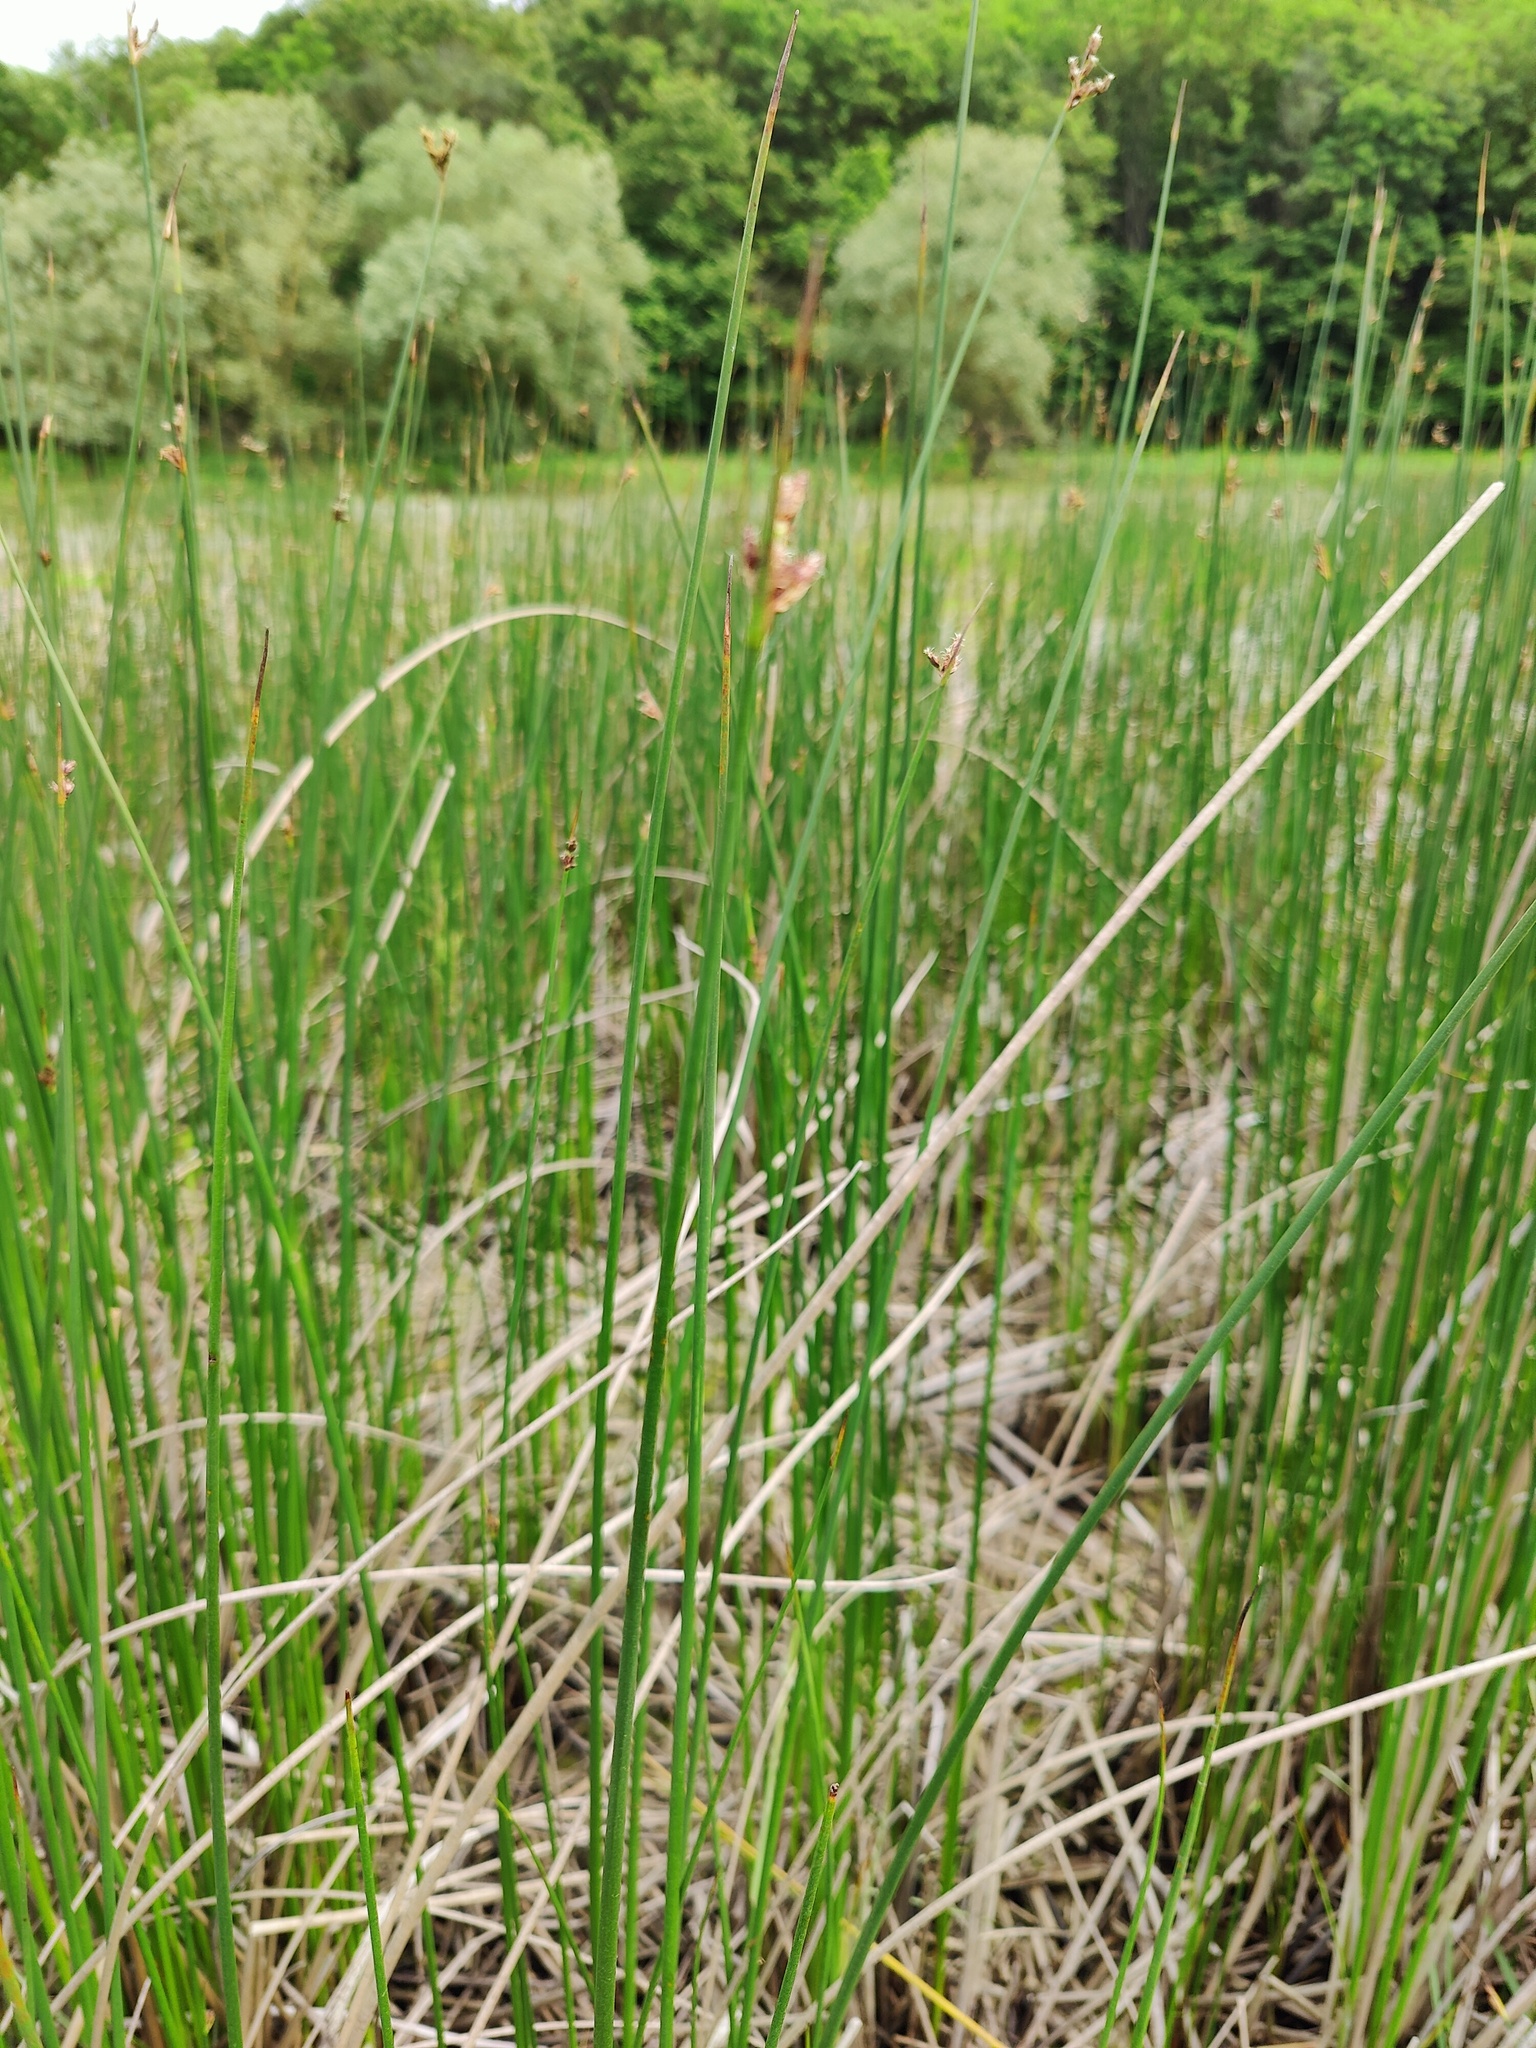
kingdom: Plantae
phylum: Tracheophyta
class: Liliopsida
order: Poales
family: Cyperaceae
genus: Schoenoplectus
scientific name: Schoenoplectus lacustris
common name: Common club-rush
